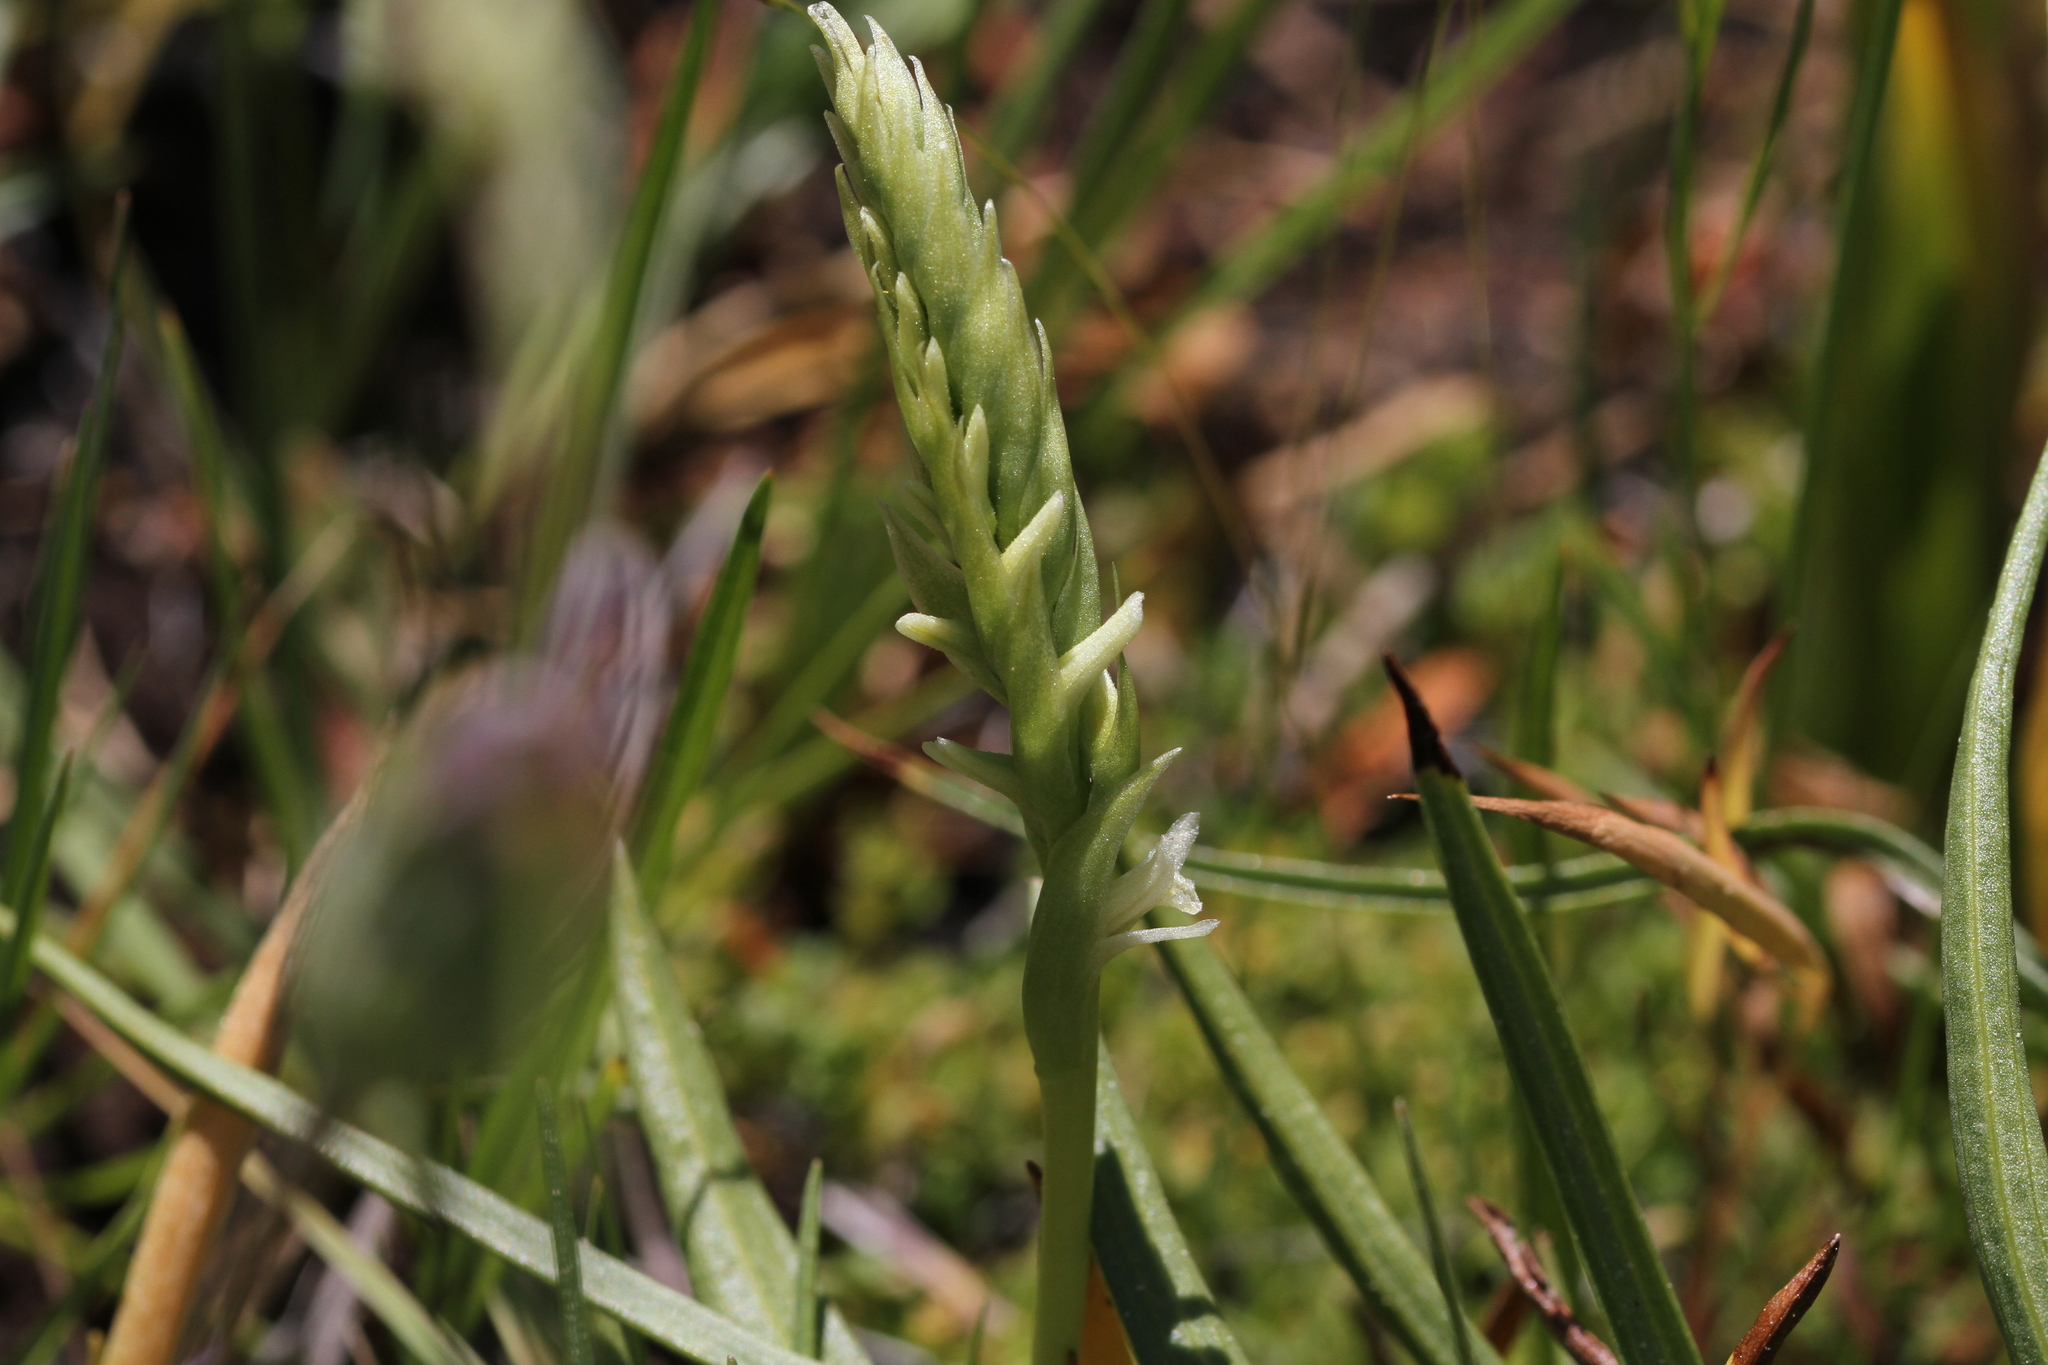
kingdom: Plantae
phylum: Tracheophyta
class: Liliopsida
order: Asparagales
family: Orchidaceae
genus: Spiranthes
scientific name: Spiranthes stellata
